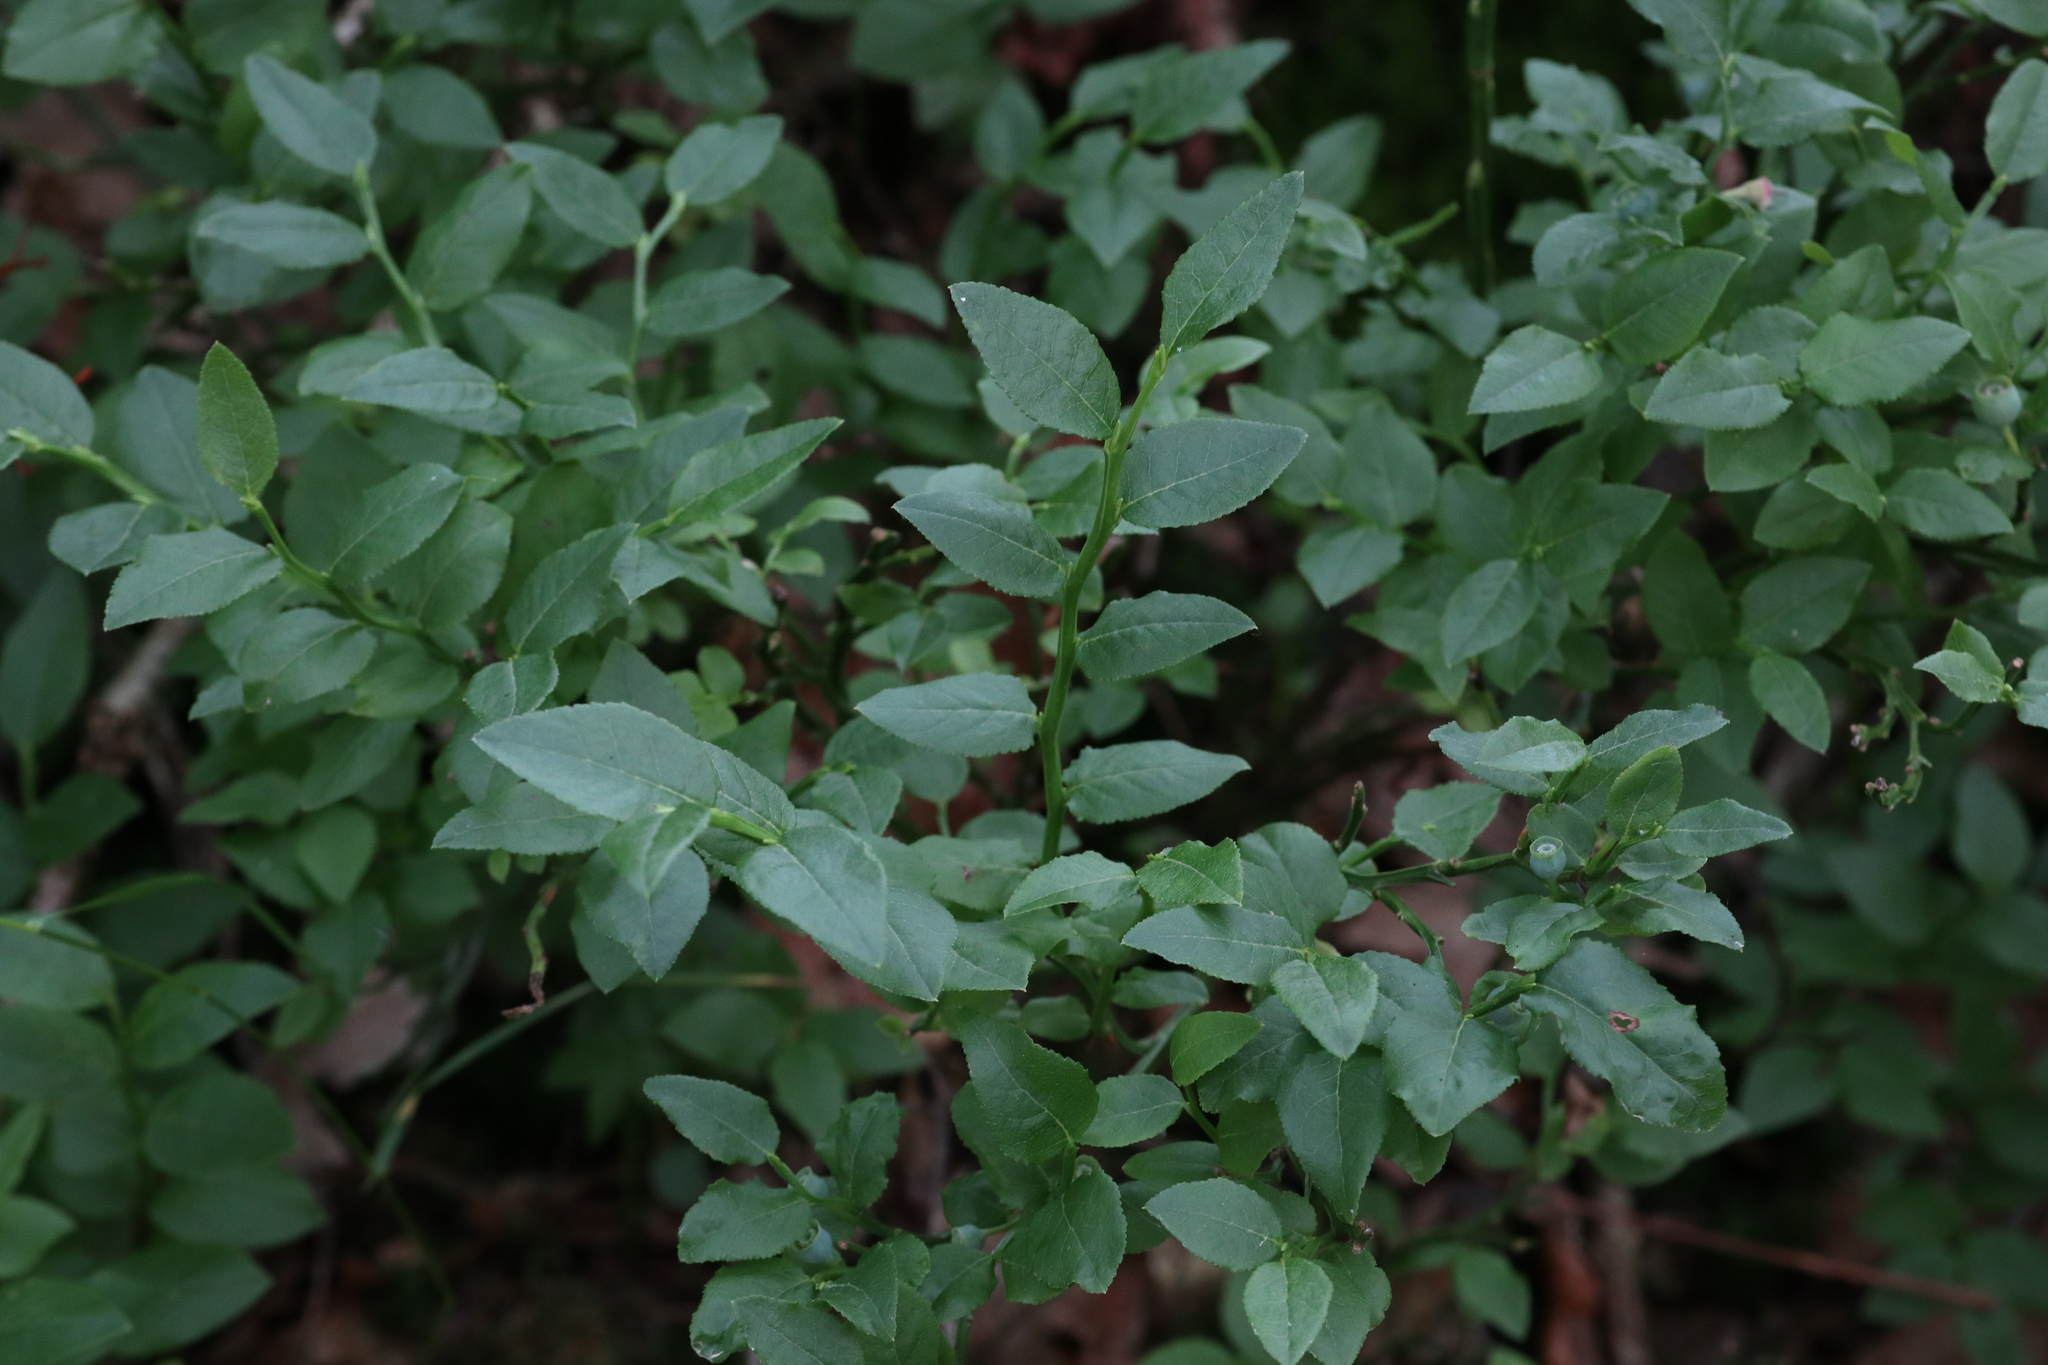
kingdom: Plantae
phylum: Tracheophyta
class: Magnoliopsida
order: Ericales
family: Ericaceae
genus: Vaccinium
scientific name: Vaccinium myrtillus
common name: Bilberry
